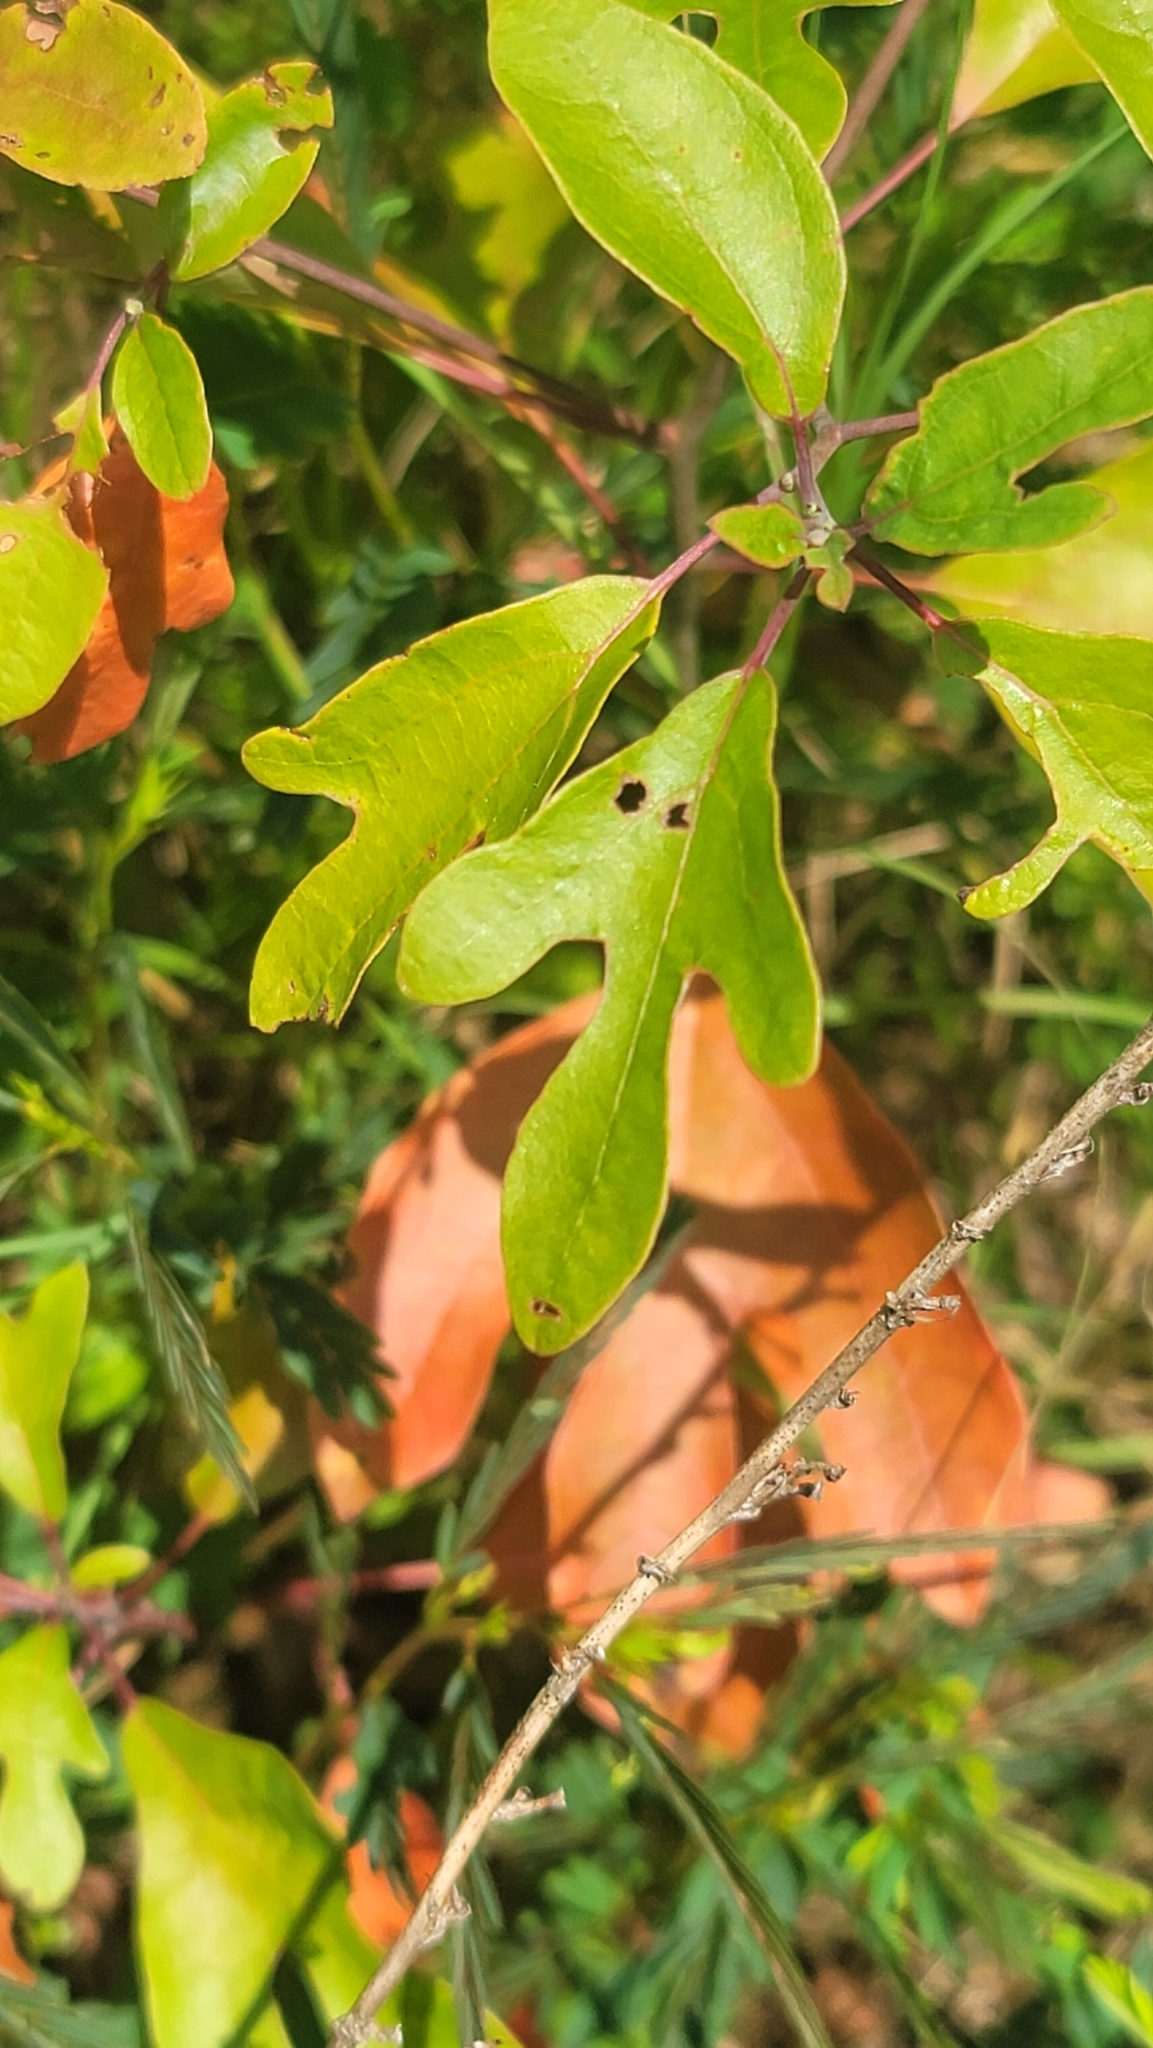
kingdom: Plantae
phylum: Tracheophyta
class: Magnoliopsida
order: Laurales
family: Lauraceae
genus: Sassafras
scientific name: Sassafras albidum
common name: Sassafras
